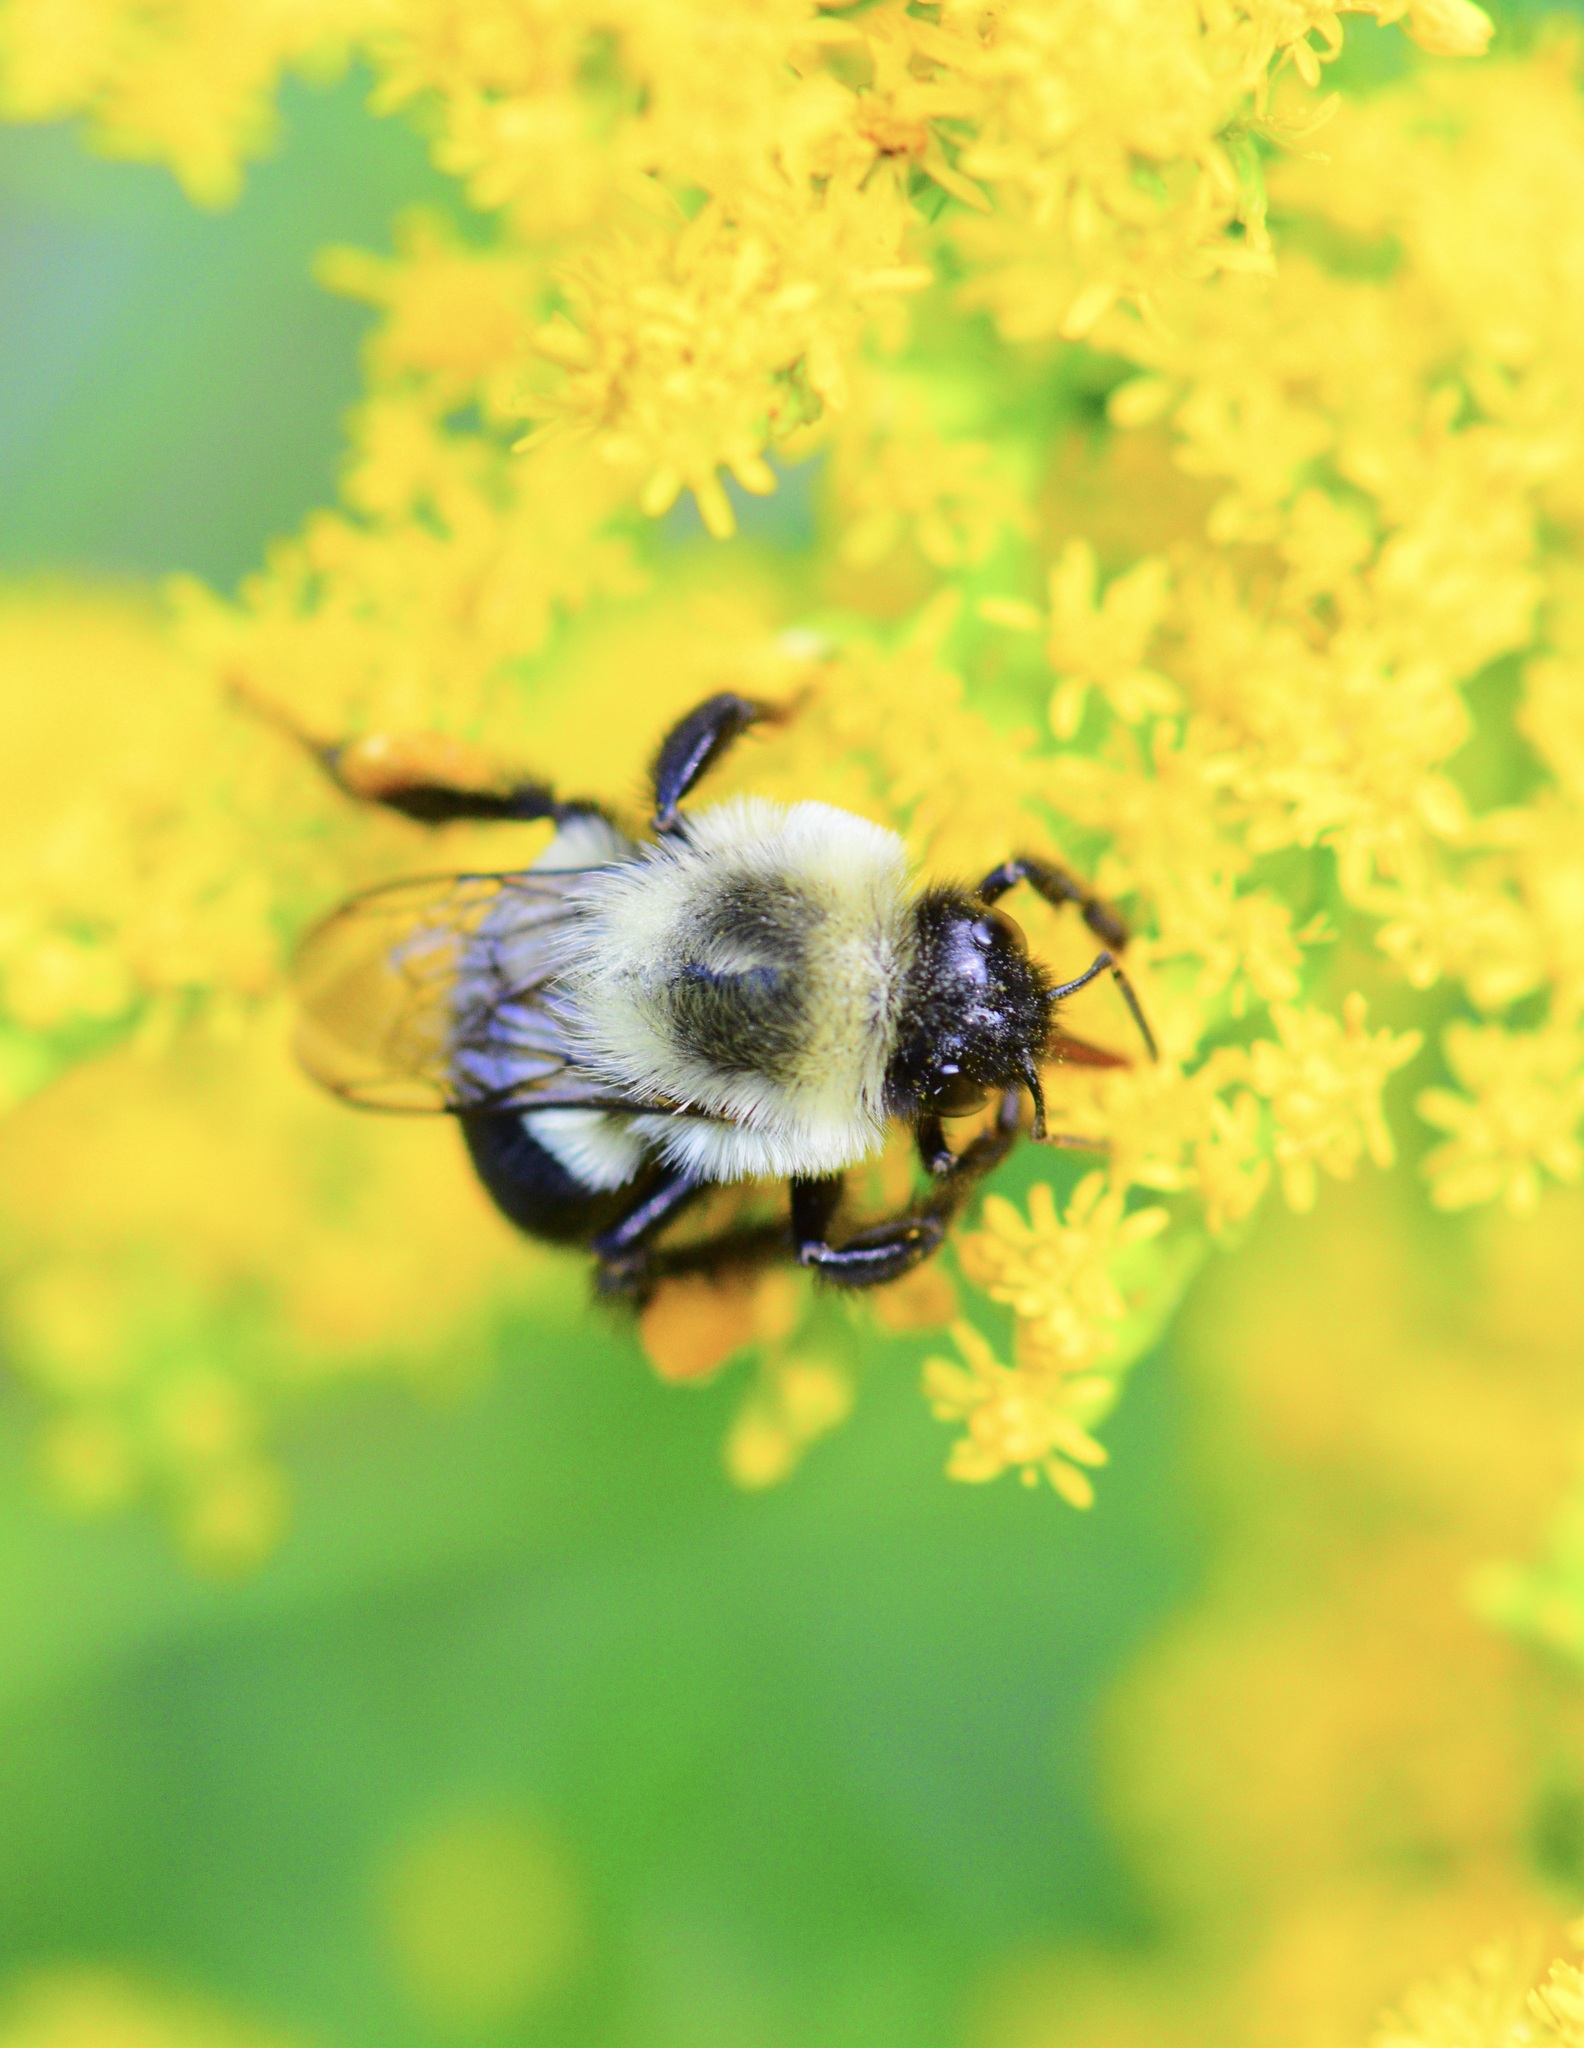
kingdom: Animalia
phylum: Arthropoda
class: Insecta
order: Hymenoptera
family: Apidae
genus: Bombus
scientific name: Bombus impatiens
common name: Common eastern bumble bee
